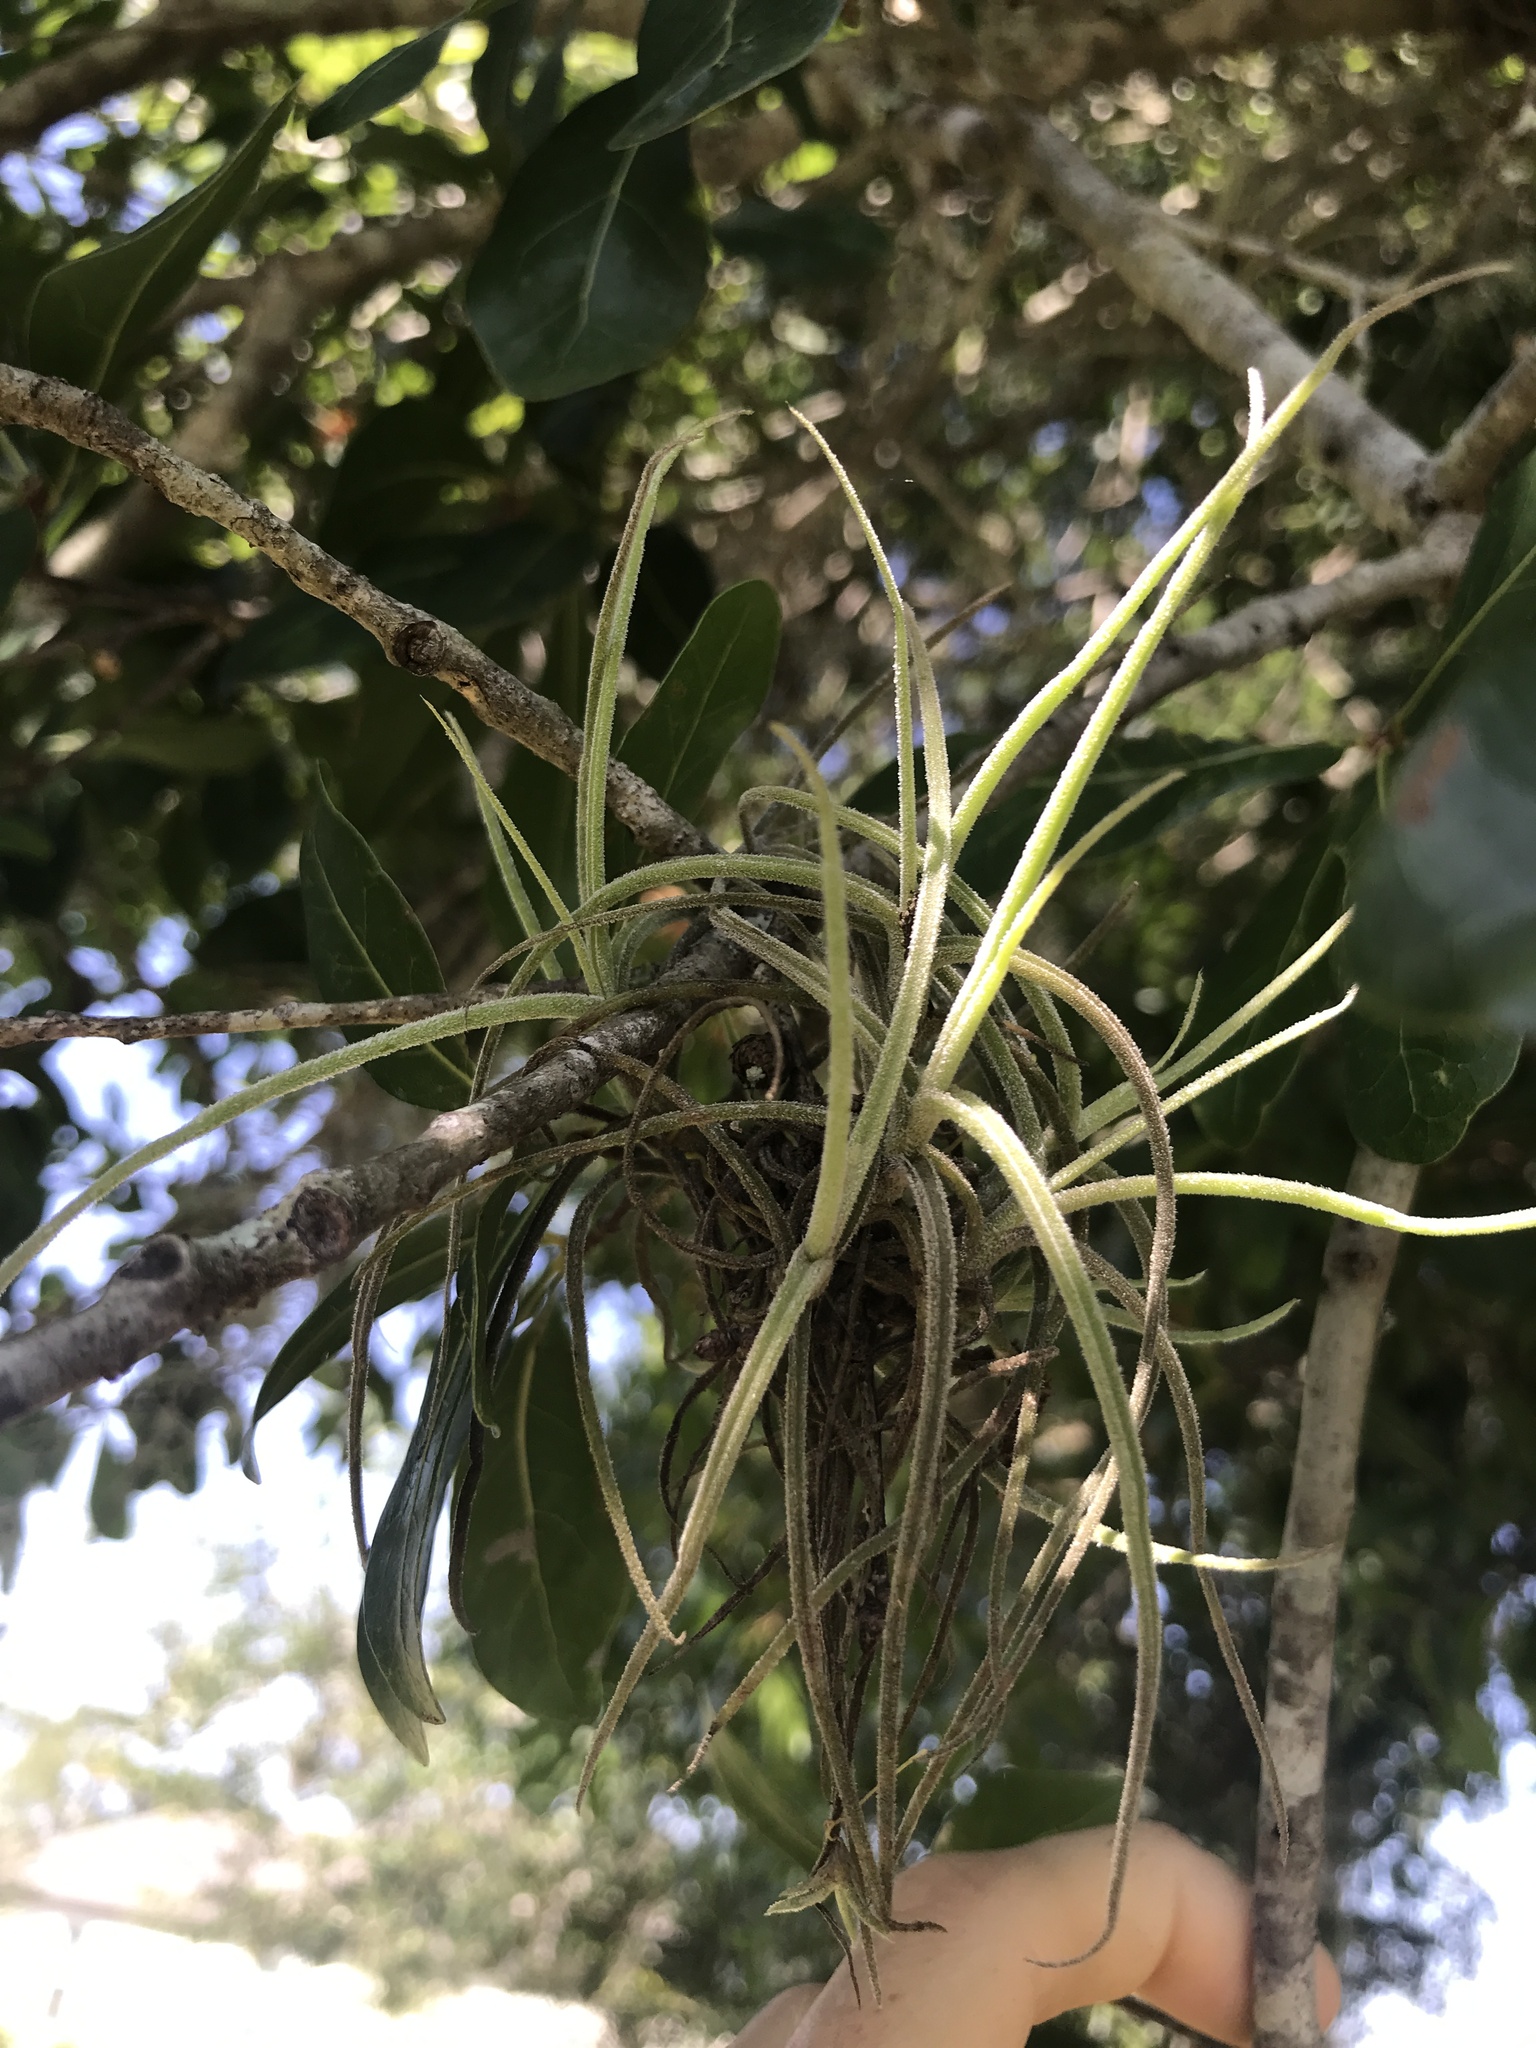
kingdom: Plantae
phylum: Tracheophyta
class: Liliopsida
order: Poales
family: Bromeliaceae
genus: Tillandsia
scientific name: Tillandsia recurvata
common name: Small ballmoss
